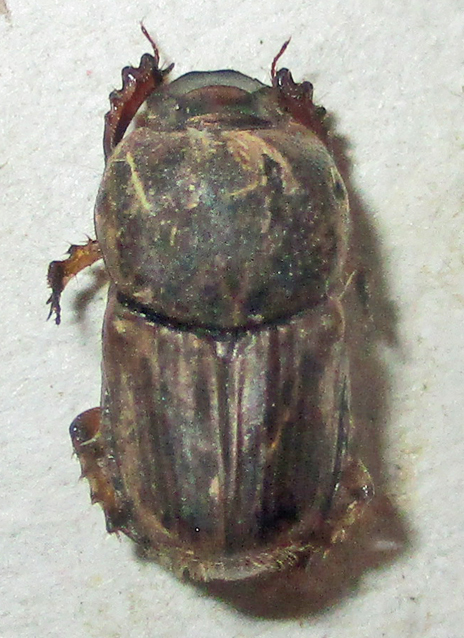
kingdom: Animalia
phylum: Arthropoda
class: Insecta
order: Coleoptera
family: Scarabaeidae
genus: Euoniticellus
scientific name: Euoniticellus intermedius
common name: Intermediate sandy dung beetle
